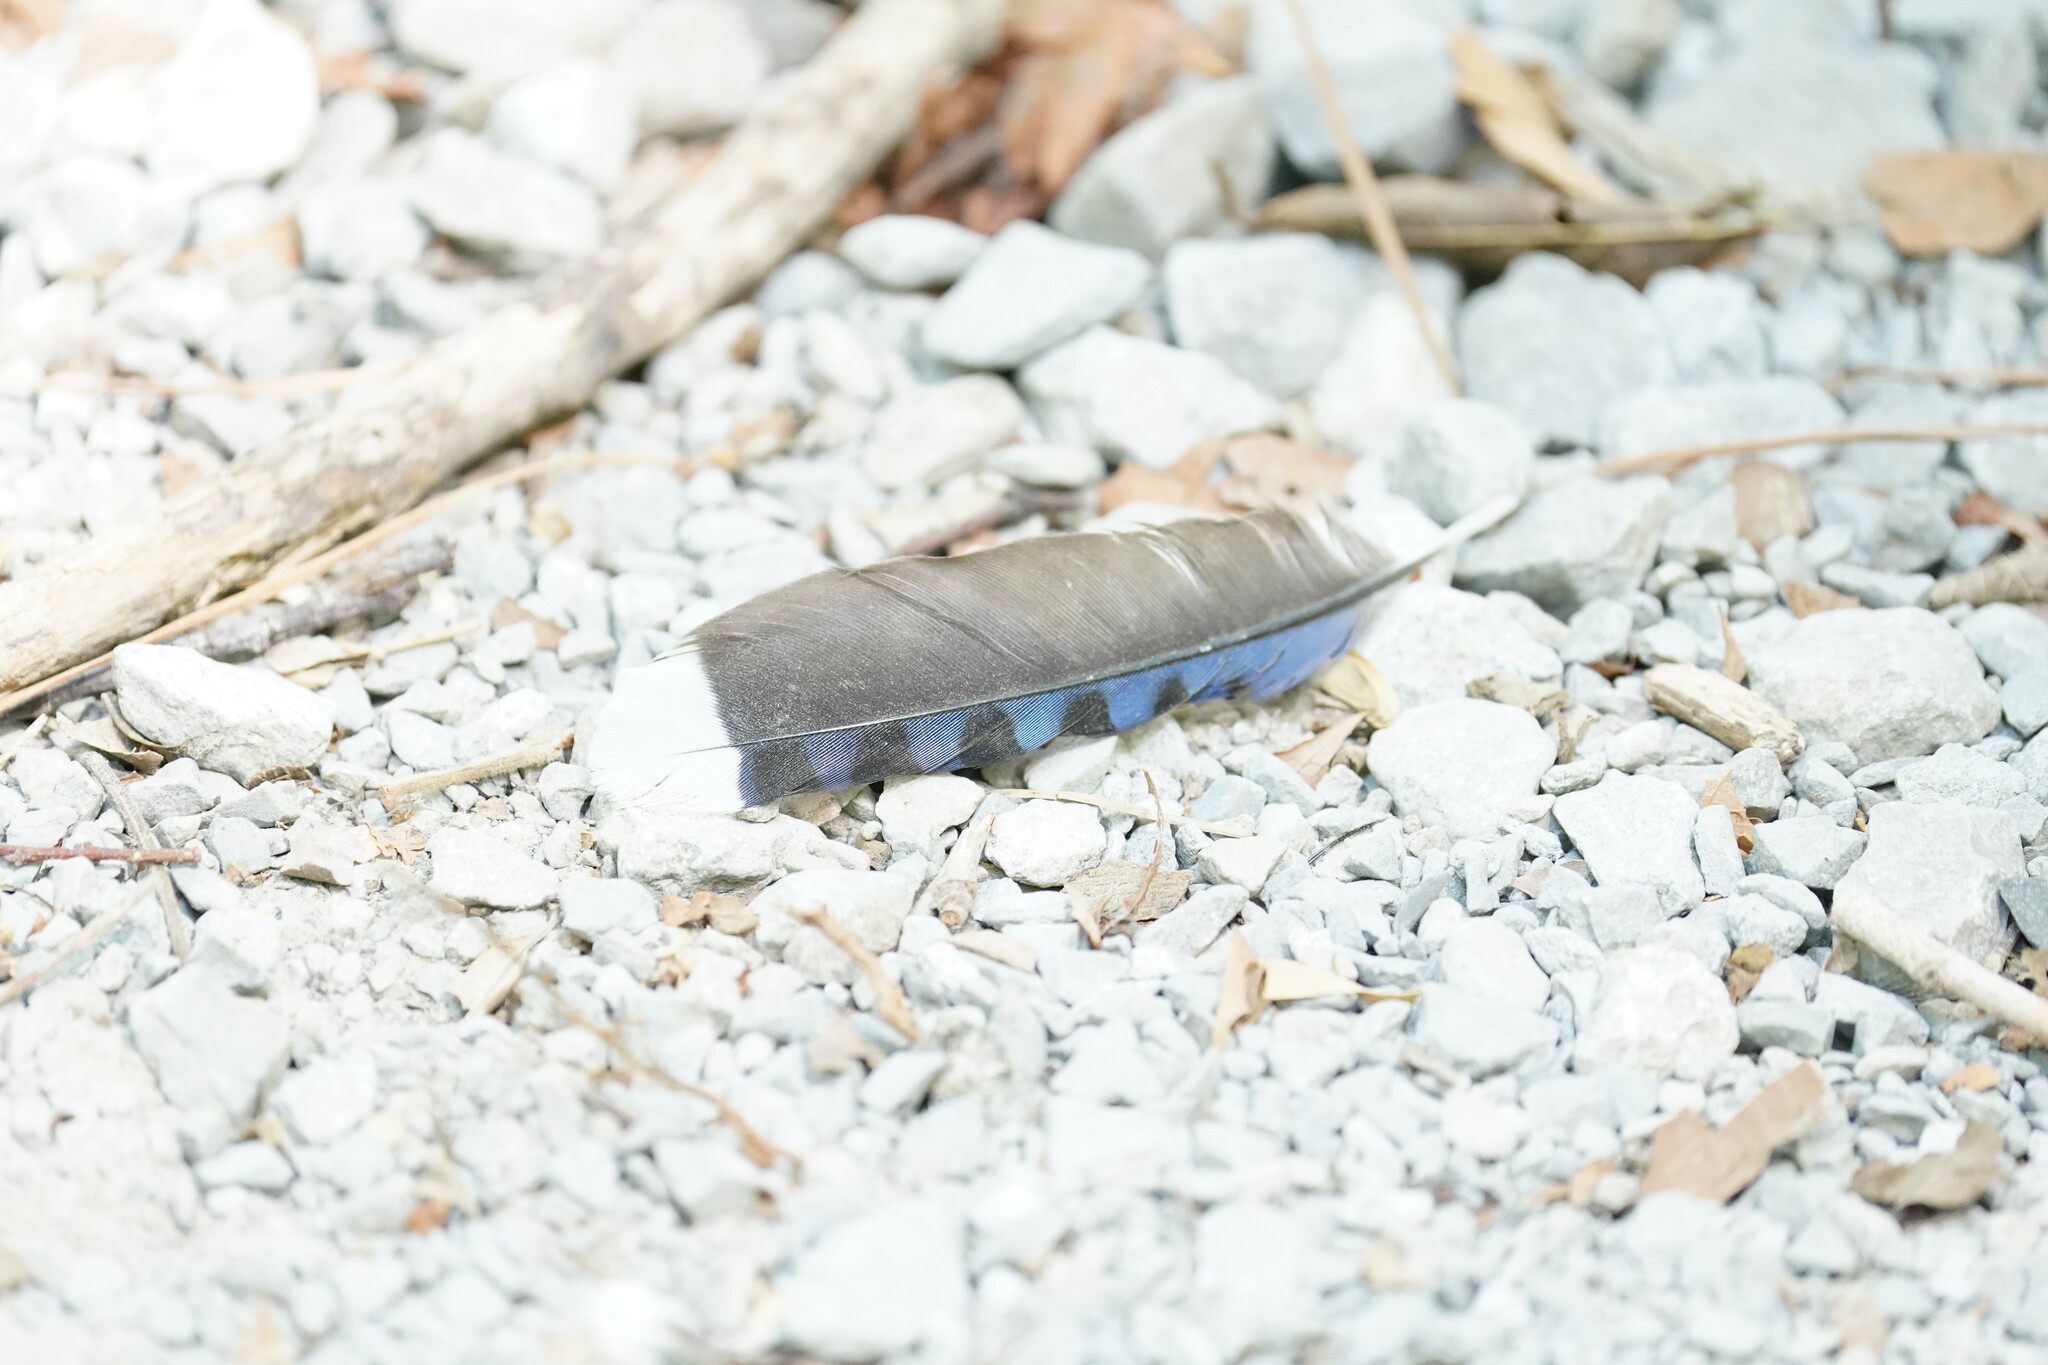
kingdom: Animalia
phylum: Chordata
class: Aves
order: Passeriformes
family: Corvidae
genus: Cyanocitta
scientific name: Cyanocitta cristata
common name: Blue jay
